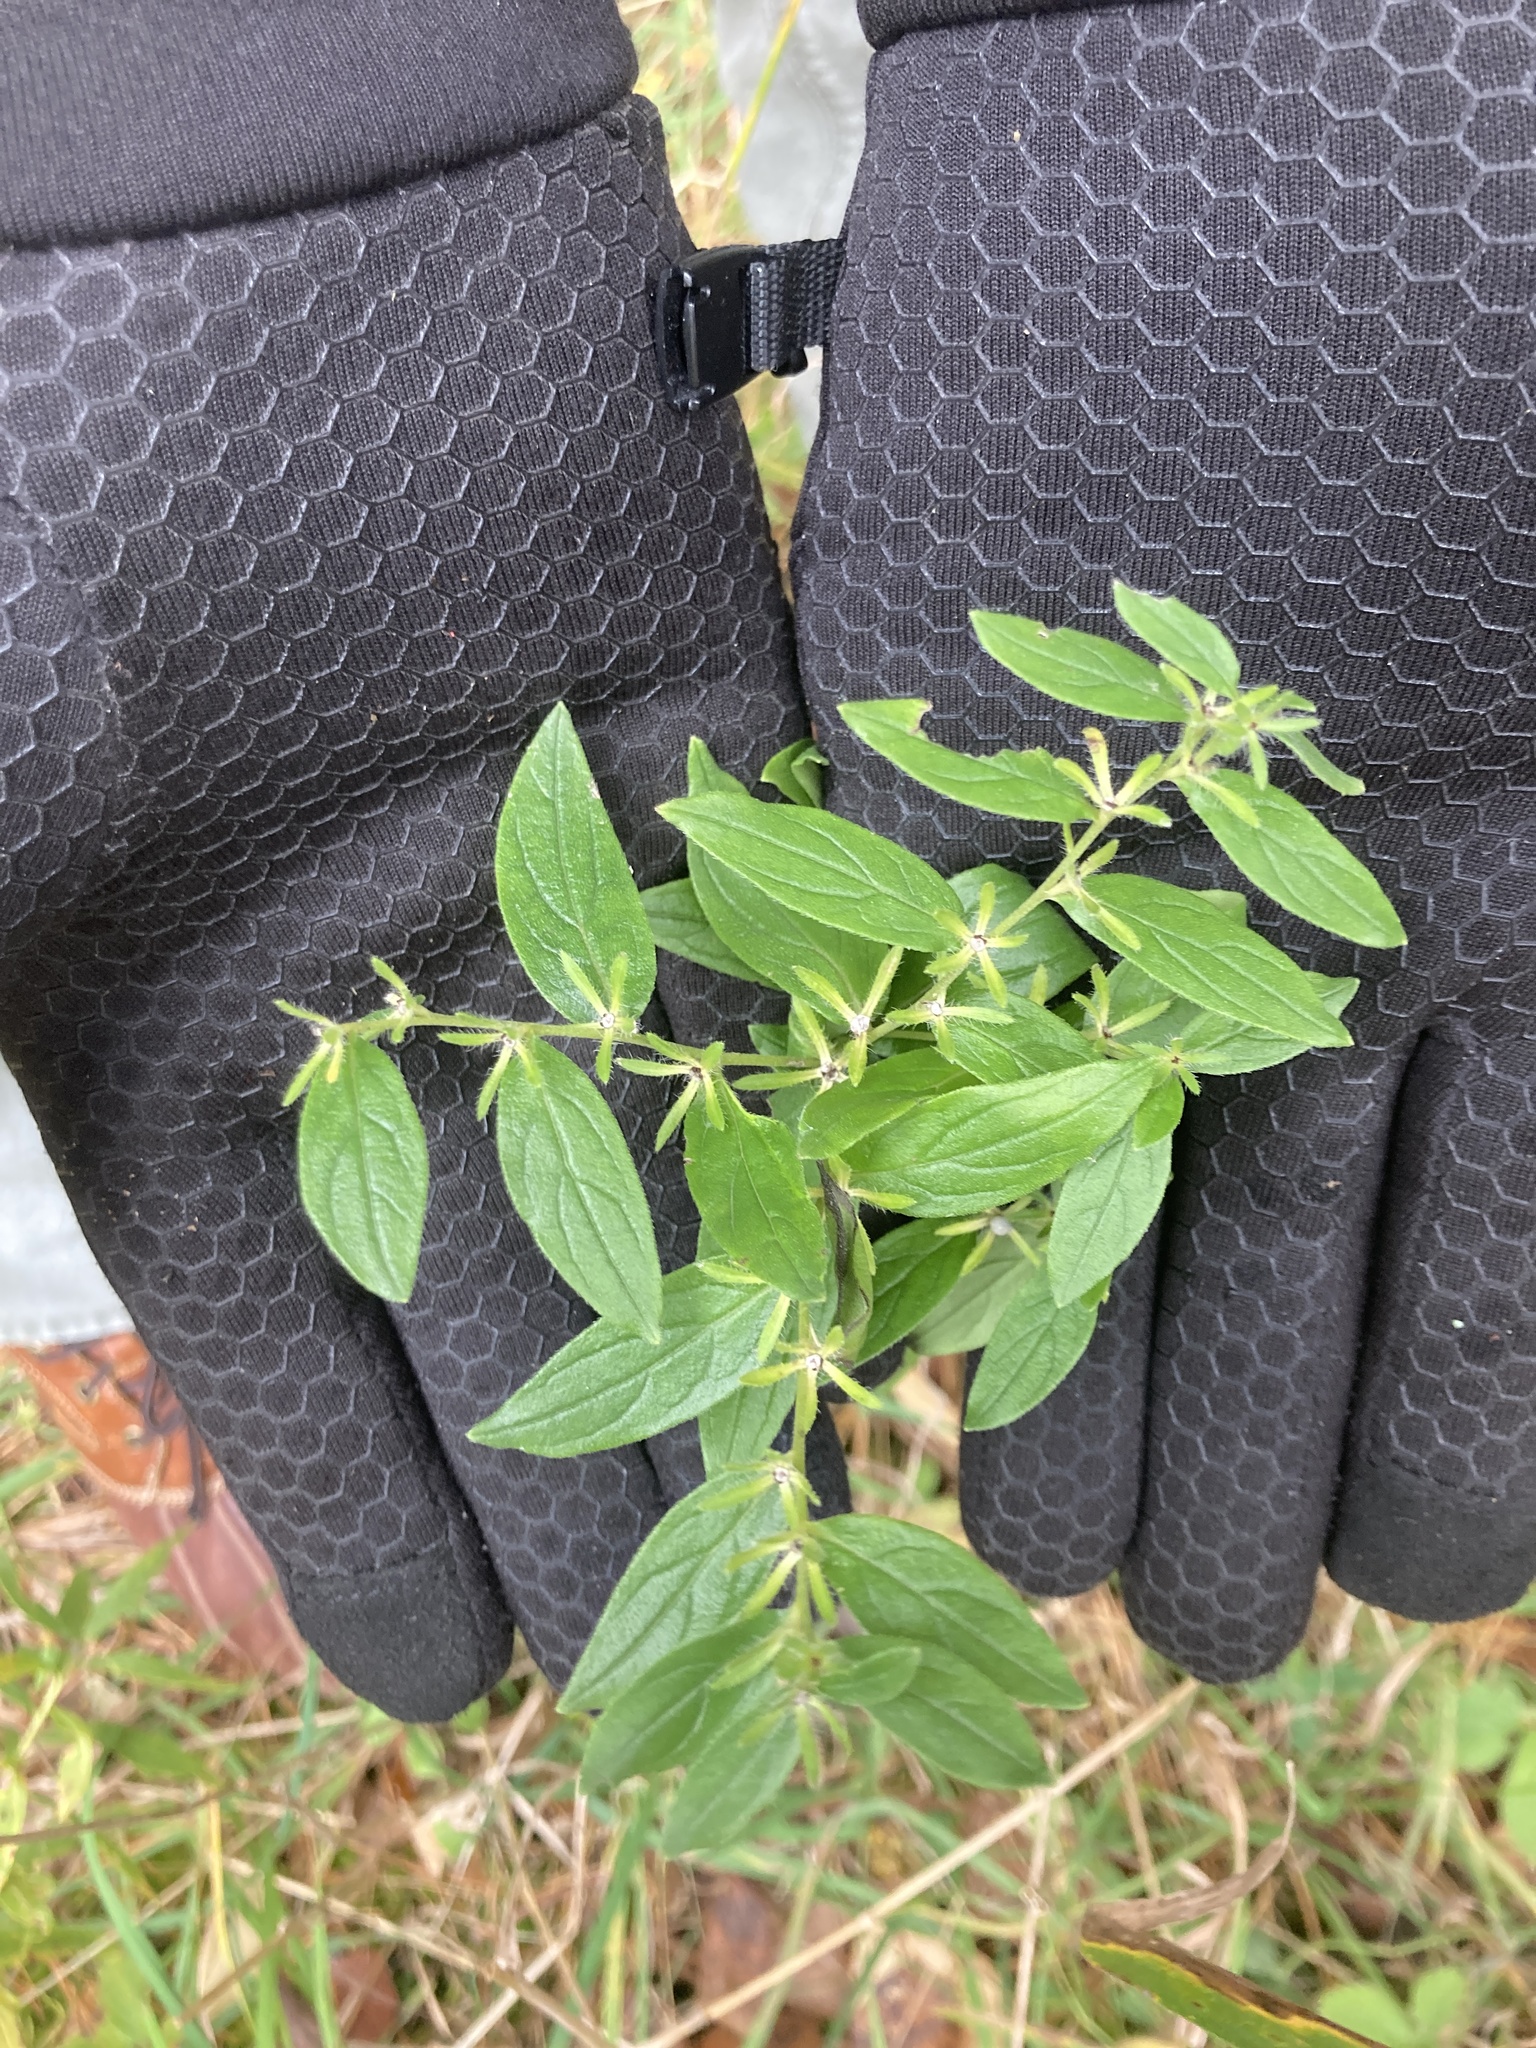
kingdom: Plantae
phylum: Tracheophyta
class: Magnoliopsida
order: Boraginales
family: Boraginaceae
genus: Lithospermum
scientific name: Lithospermum officinale
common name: Common gromwell
